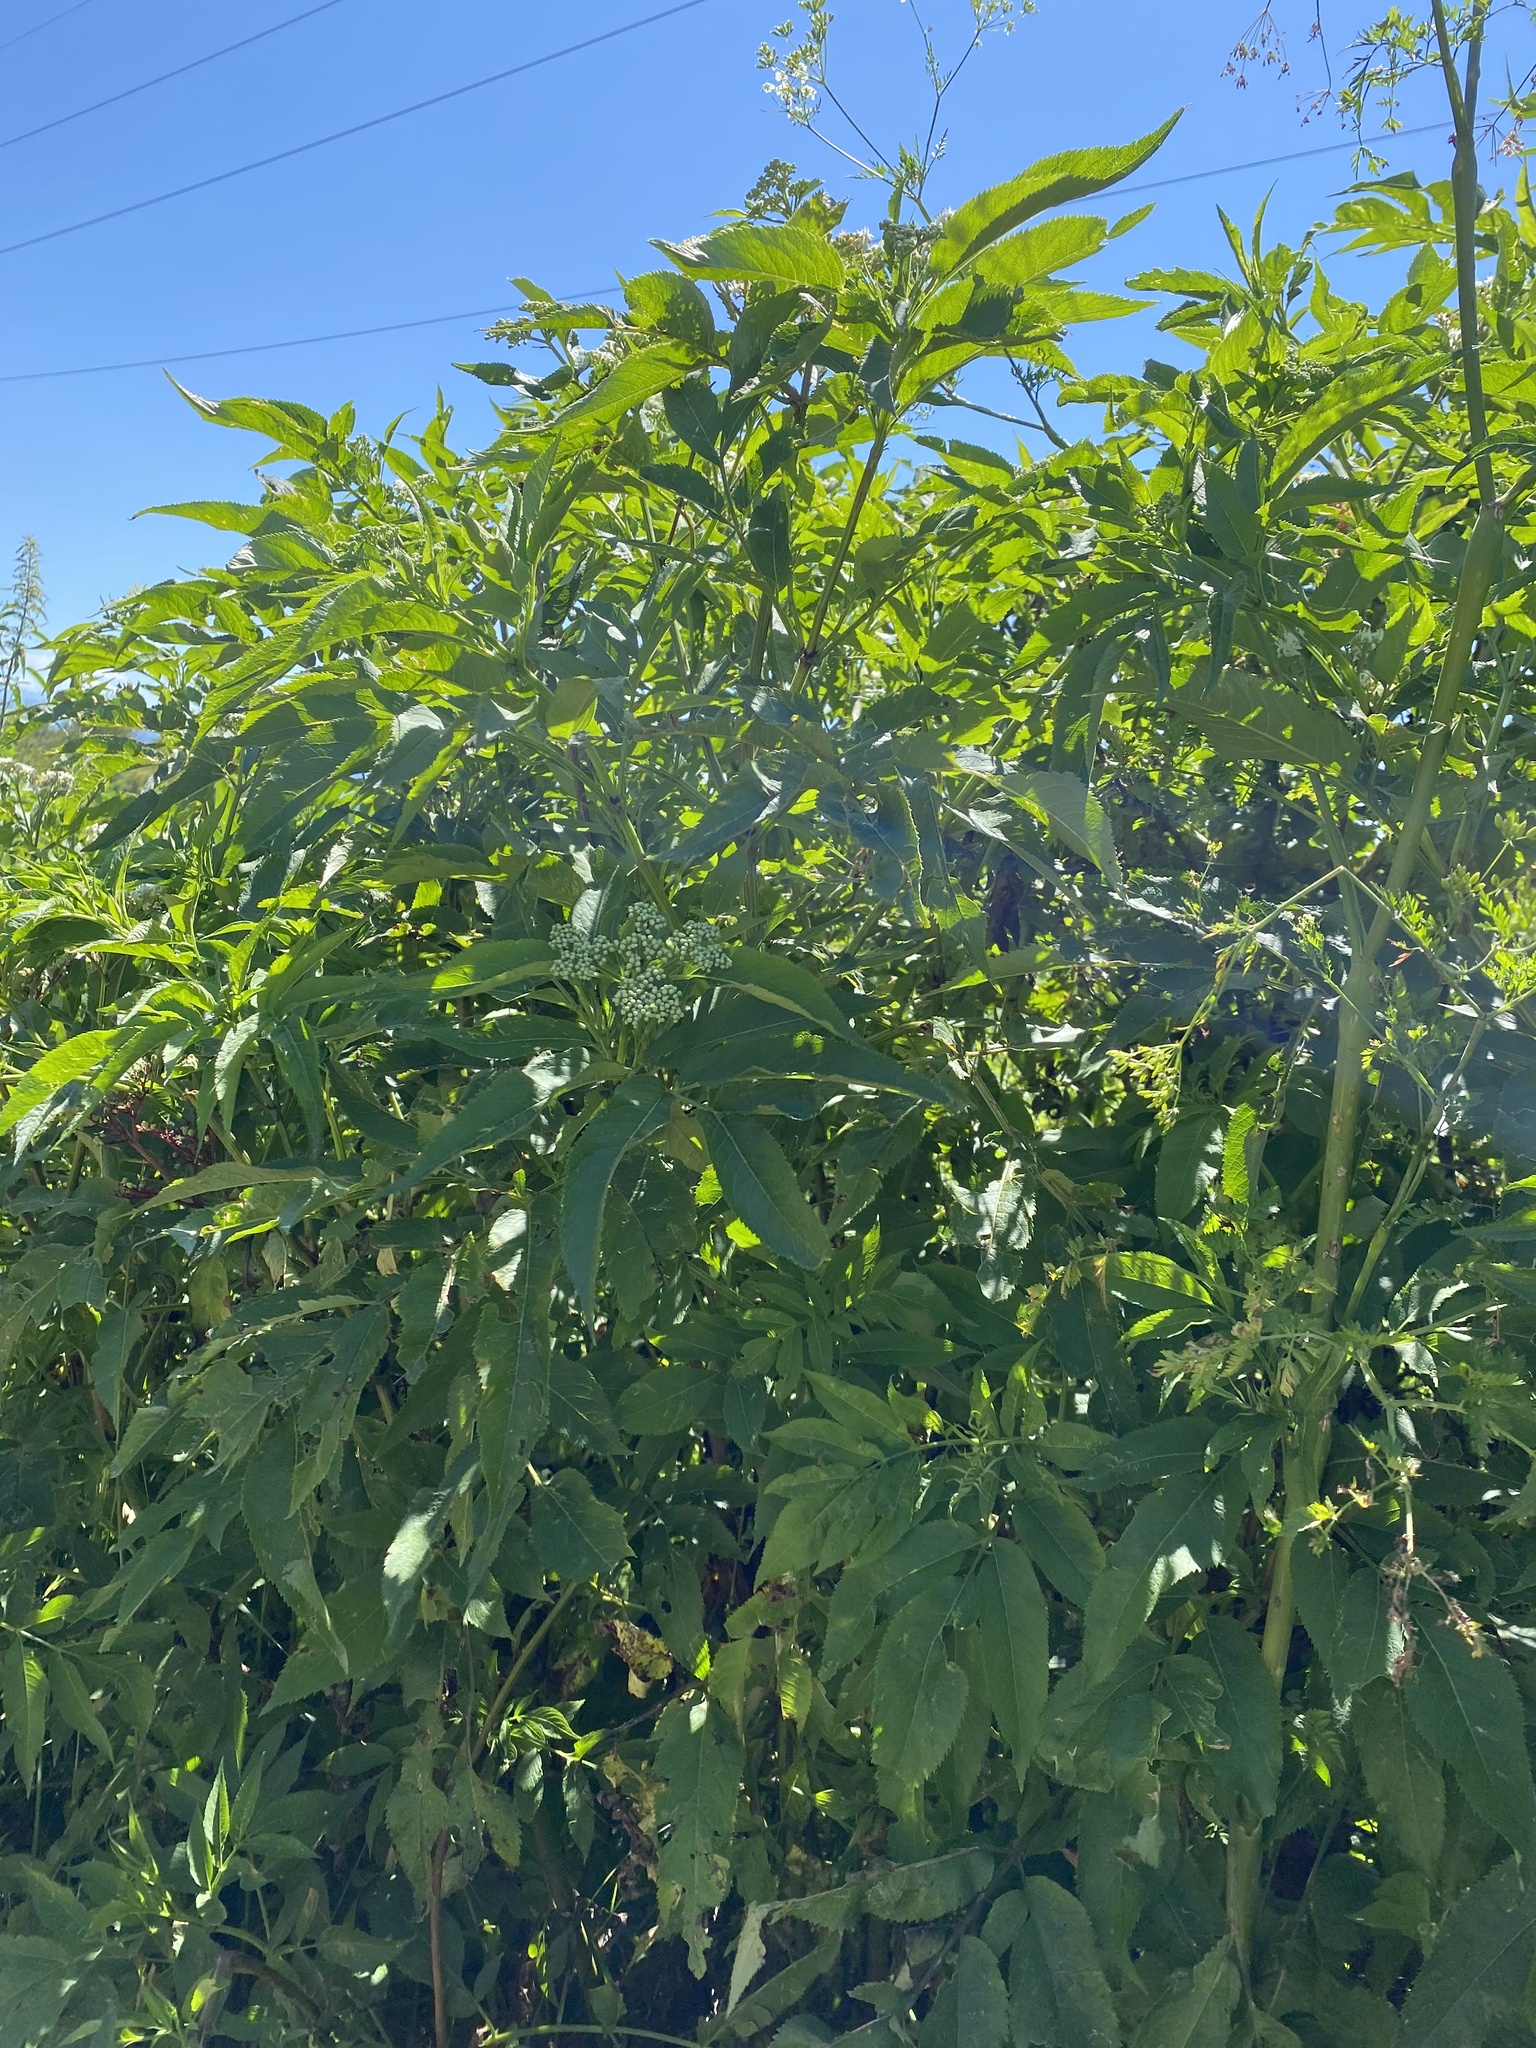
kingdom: Plantae
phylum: Tracheophyta
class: Magnoliopsida
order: Dipsacales
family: Viburnaceae
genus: Sambucus
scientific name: Sambucus ebulus
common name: Dwarf elder
